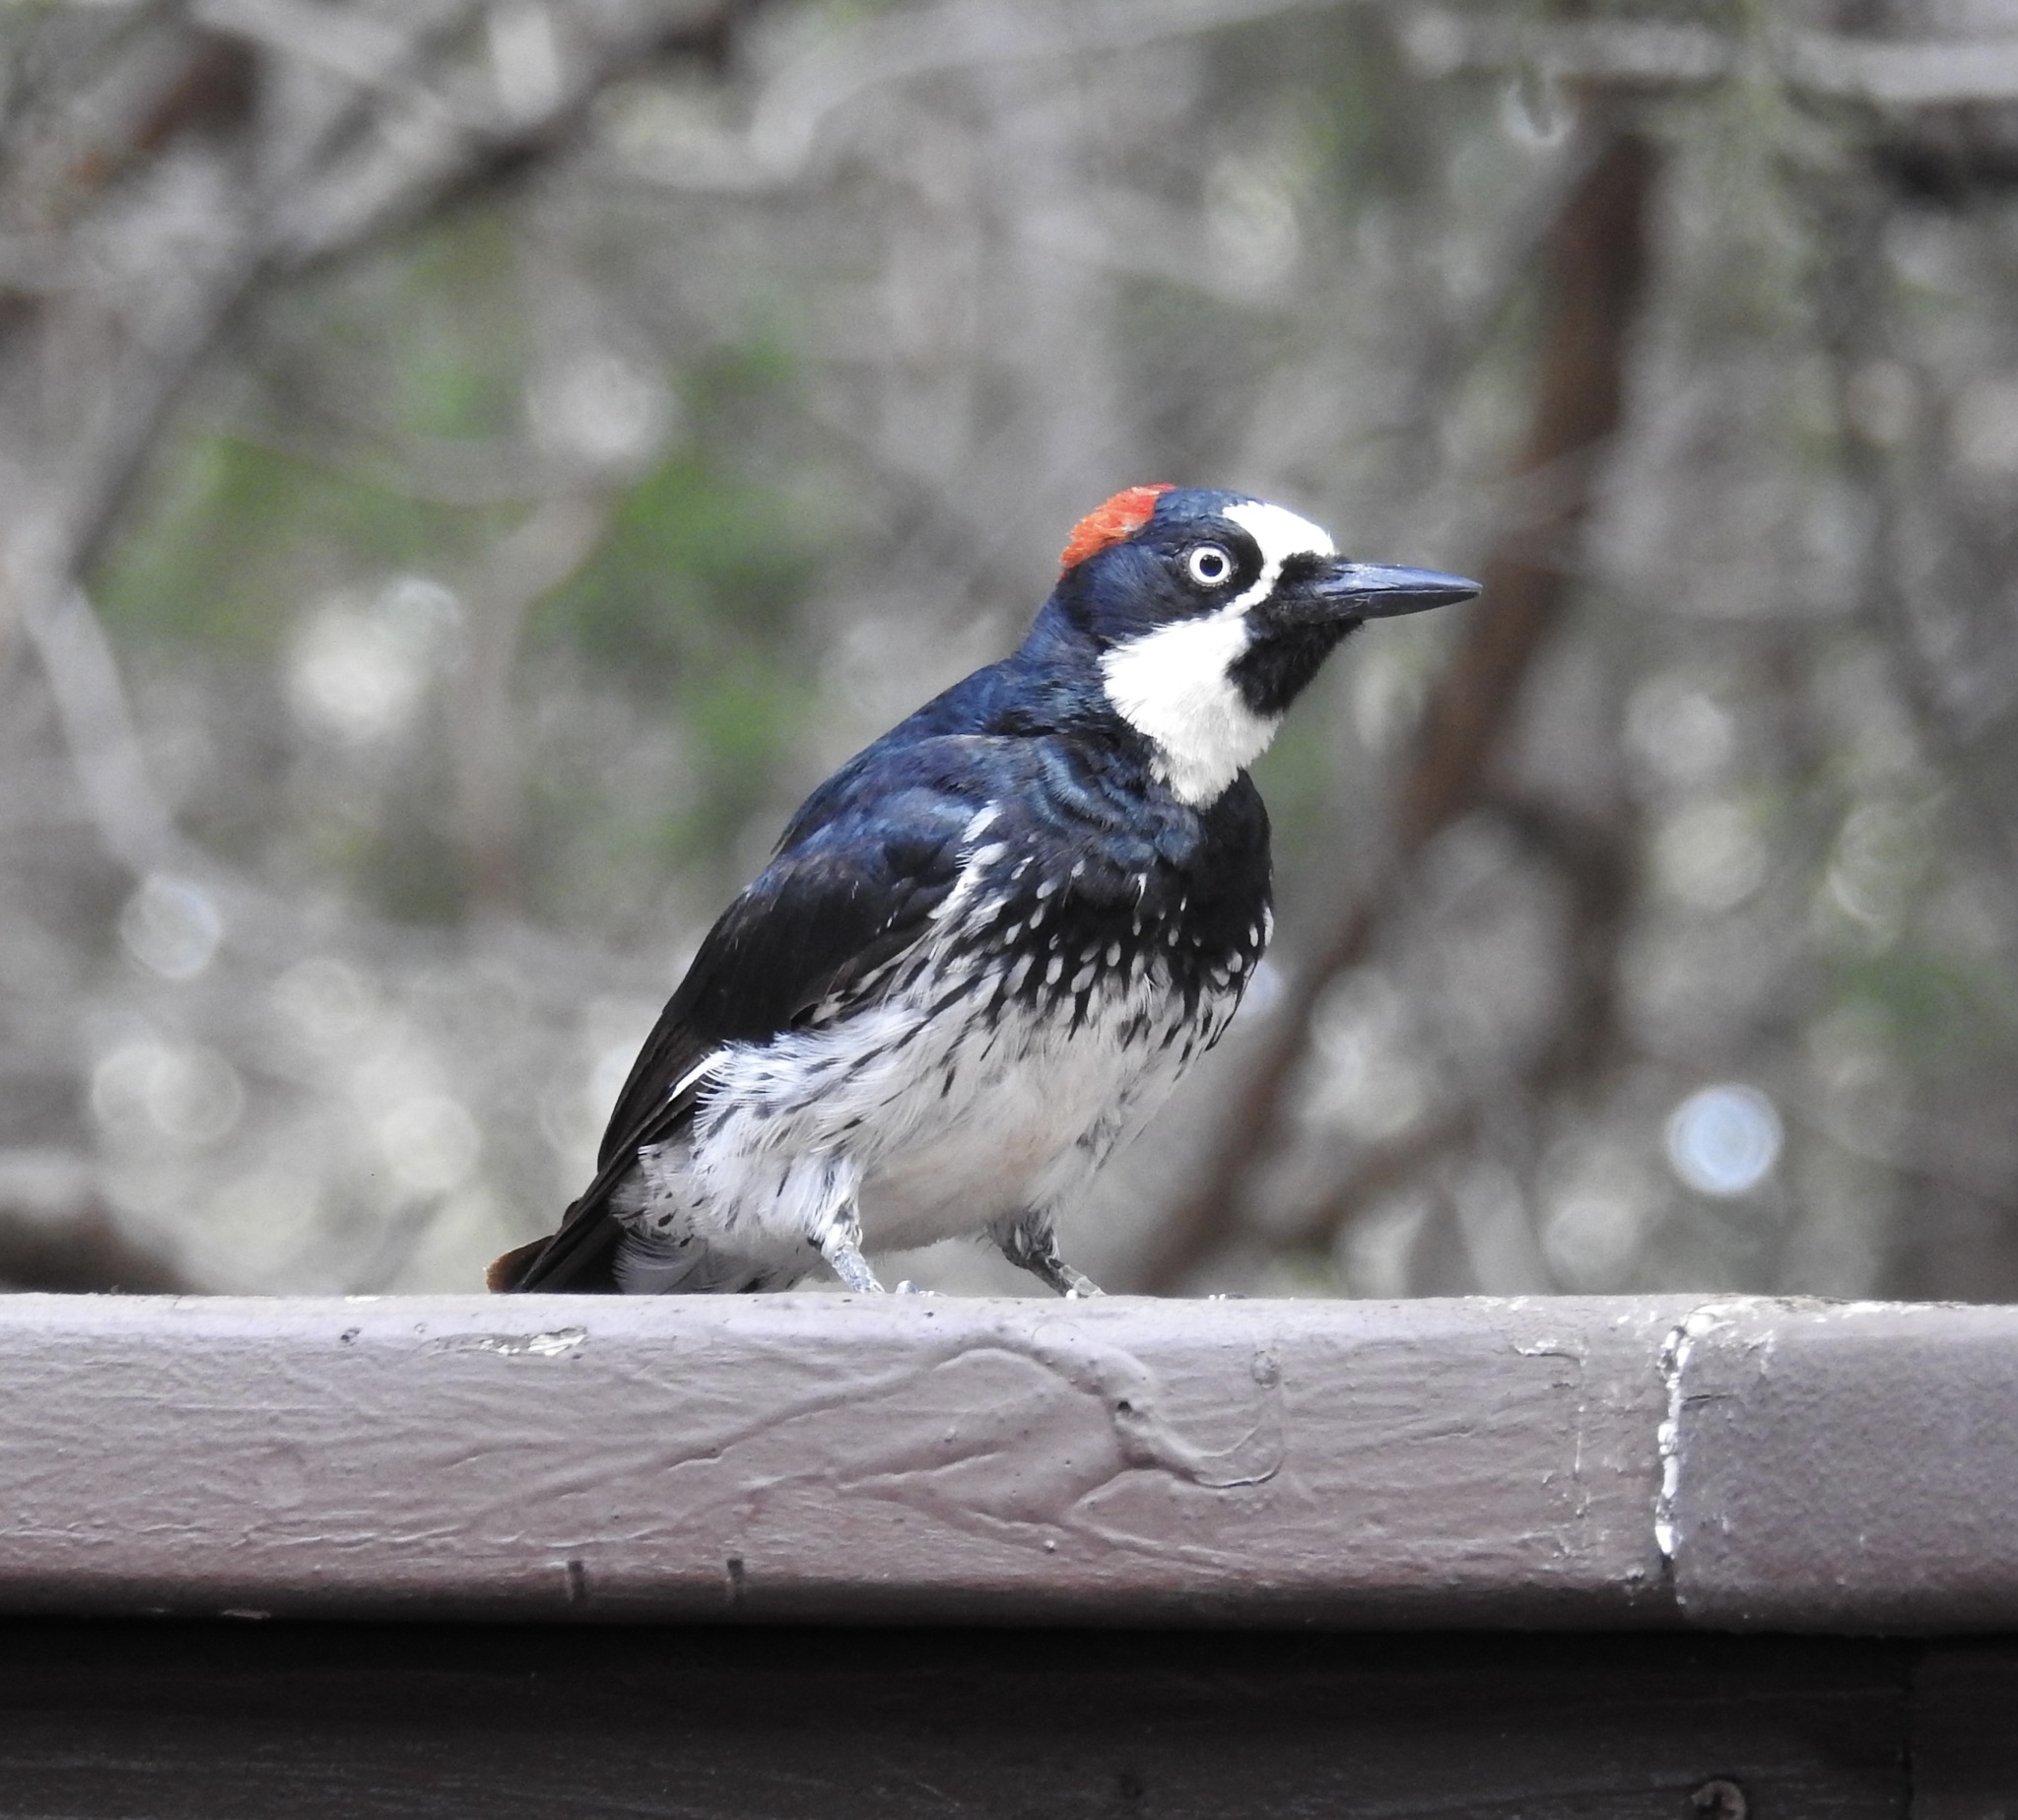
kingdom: Animalia
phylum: Chordata
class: Aves
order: Piciformes
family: Picidae
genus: Melanerpes
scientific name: Melanerpes formicivorus
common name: Acorn woodpecker
